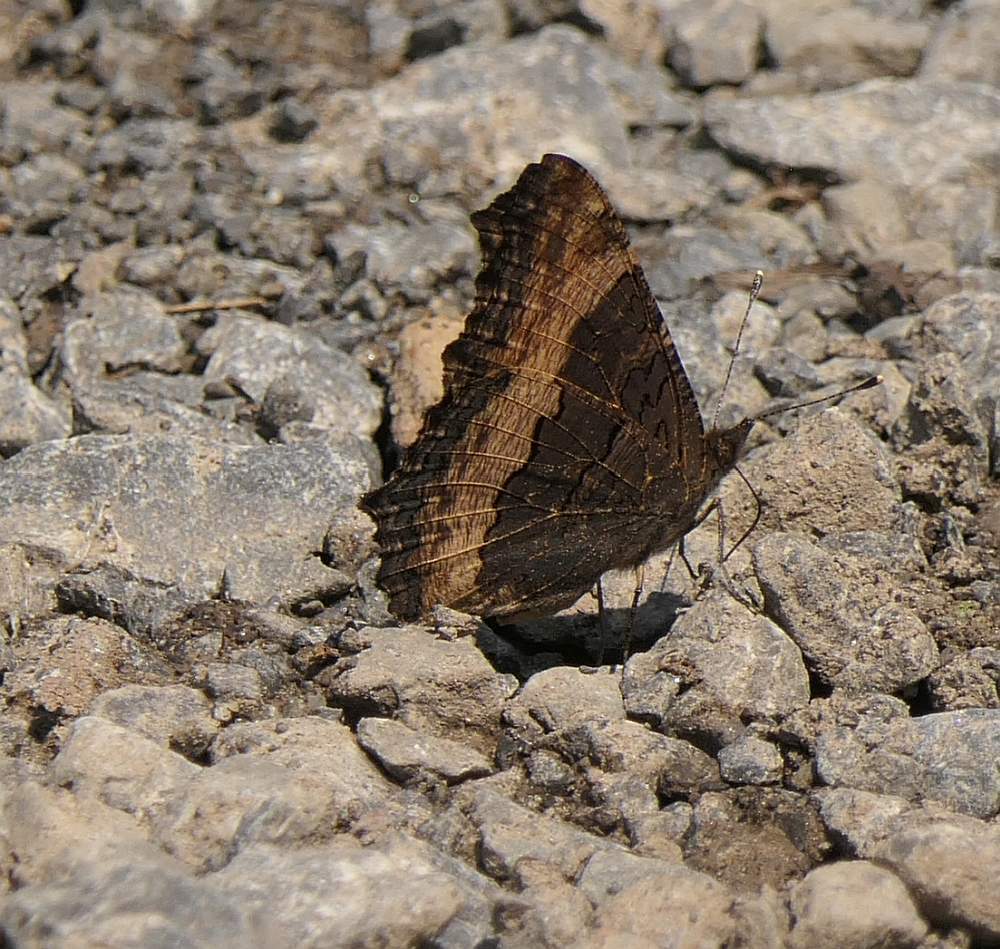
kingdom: Animalia
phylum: Arthropoda
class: Insecta
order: Lepidoptera
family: Nymphalidae
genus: Aglais
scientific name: Aglais milberti
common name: Milbert's tortoiseshell
